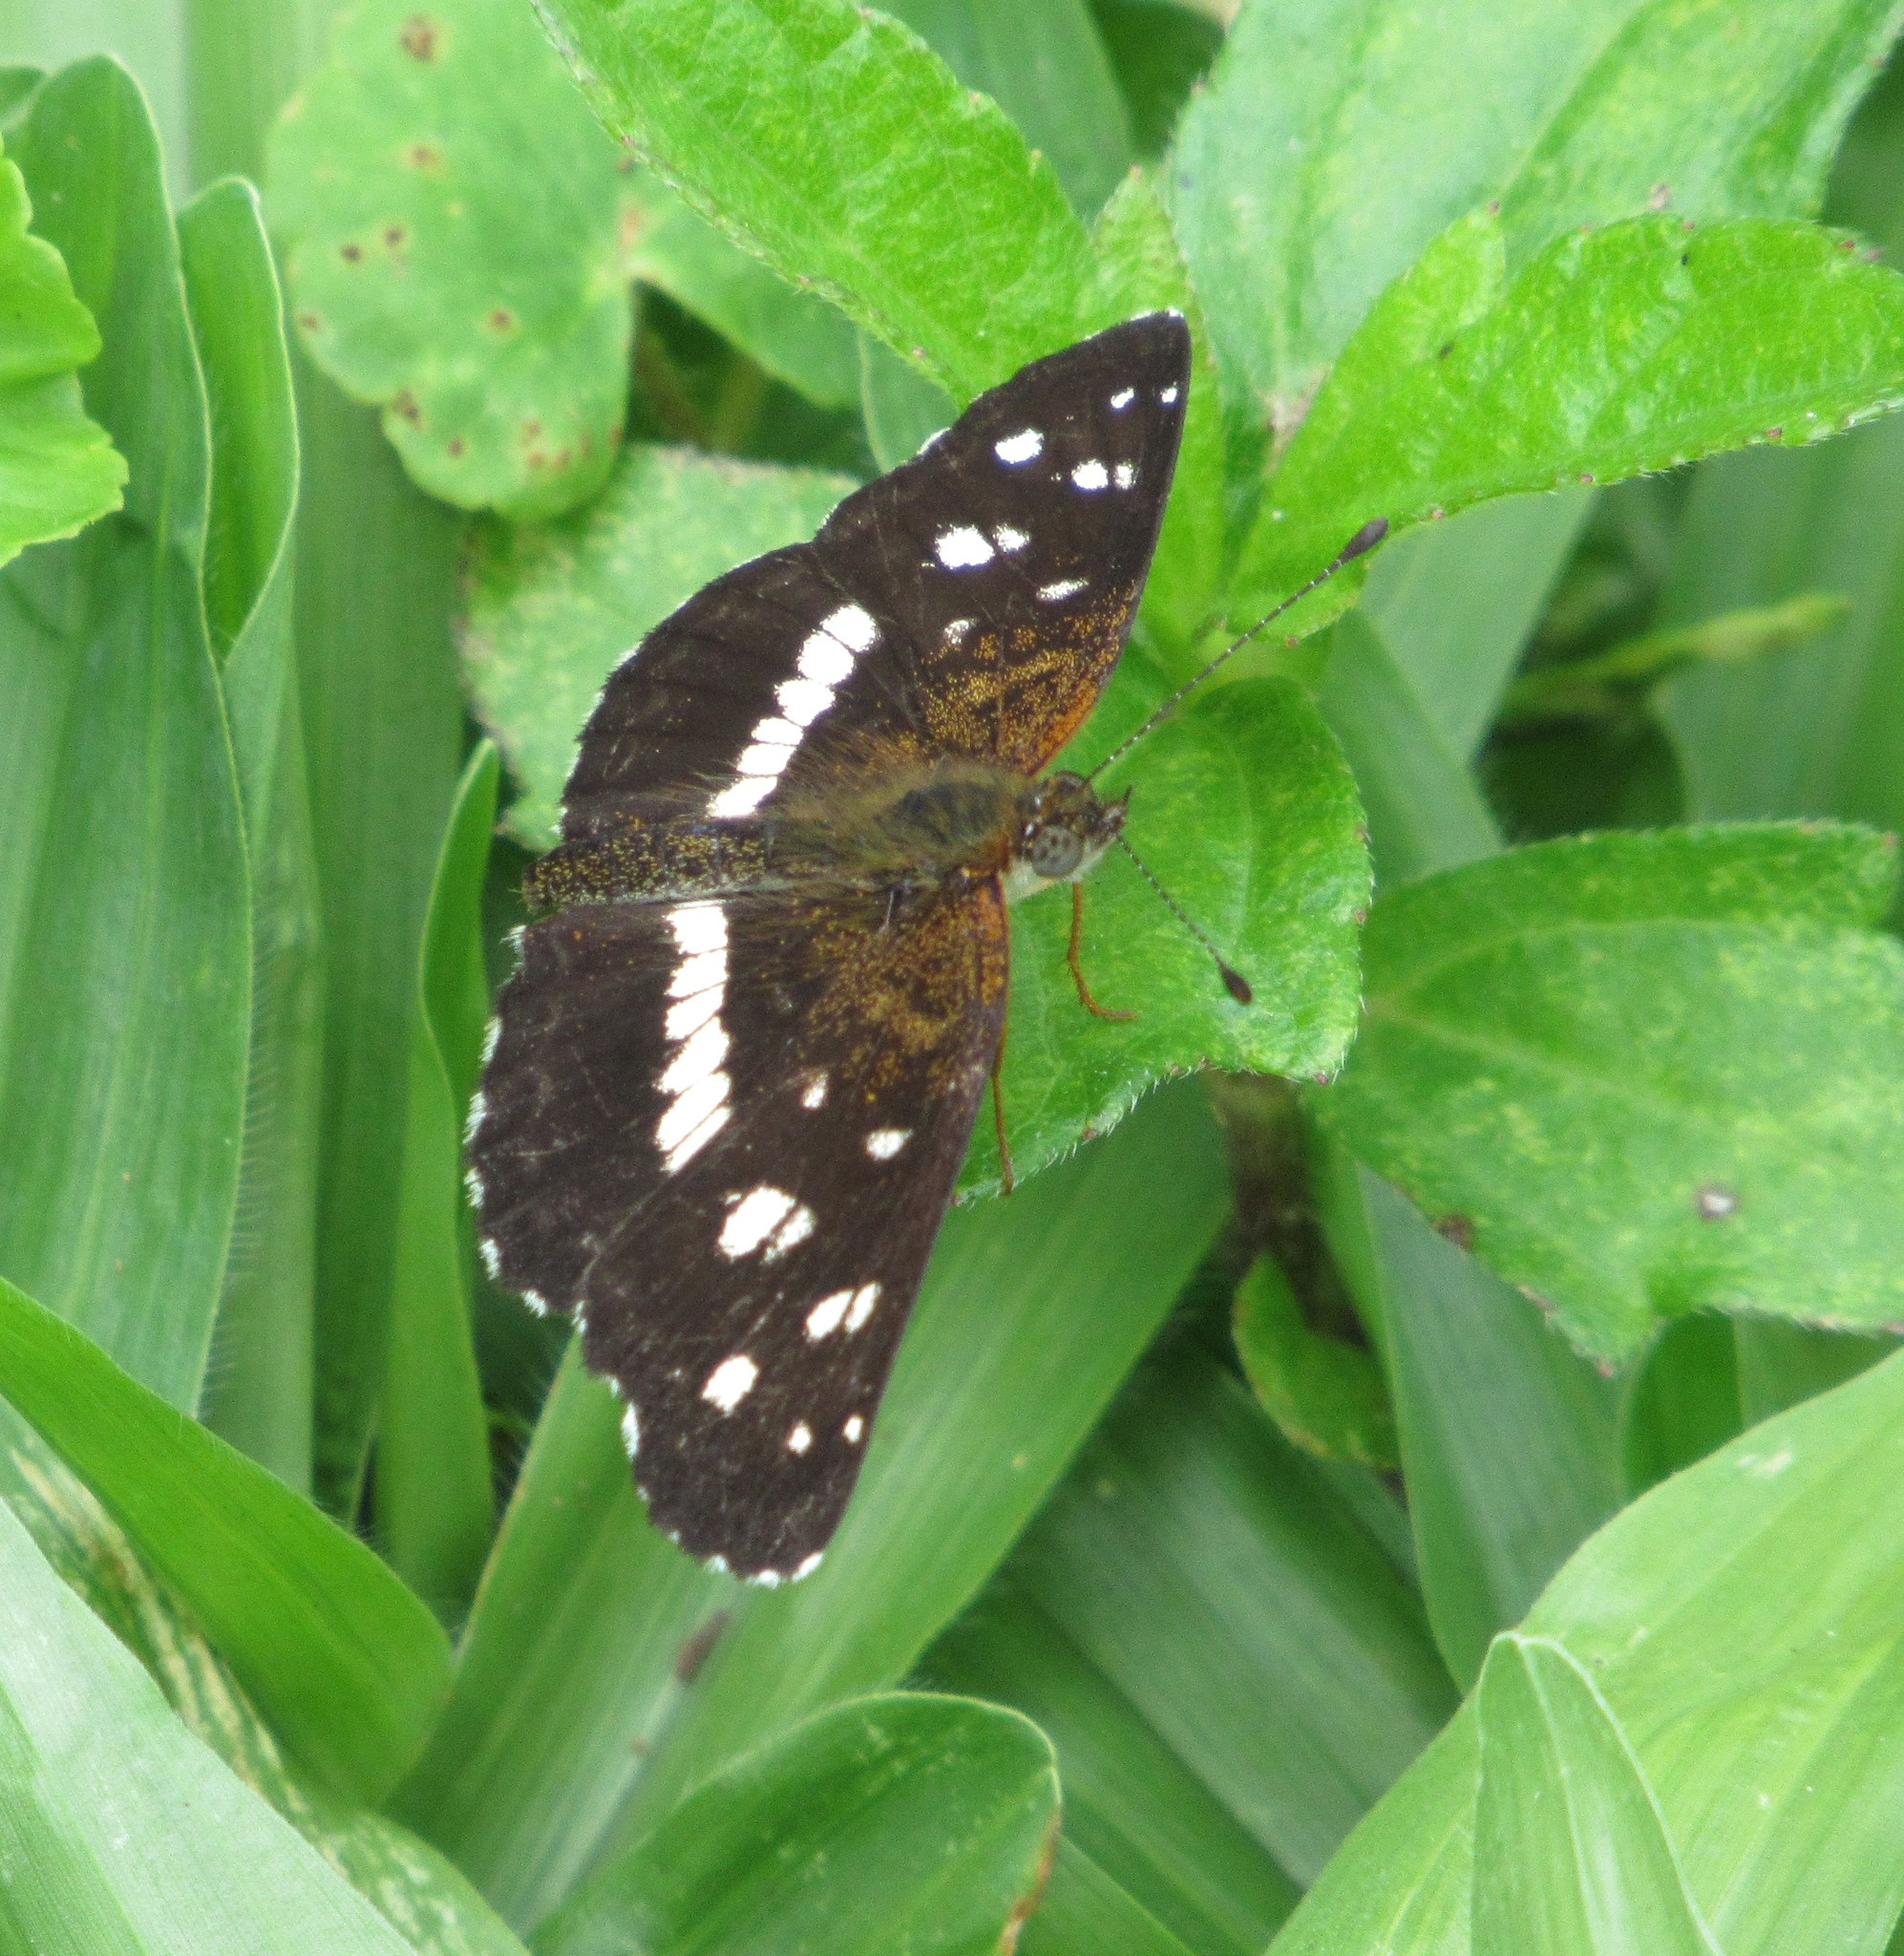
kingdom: Animalia
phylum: Arthropoda
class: Insecta
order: Lepidoptera
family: Nymphalidae
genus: Ortilia
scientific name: Ortilia ithra
